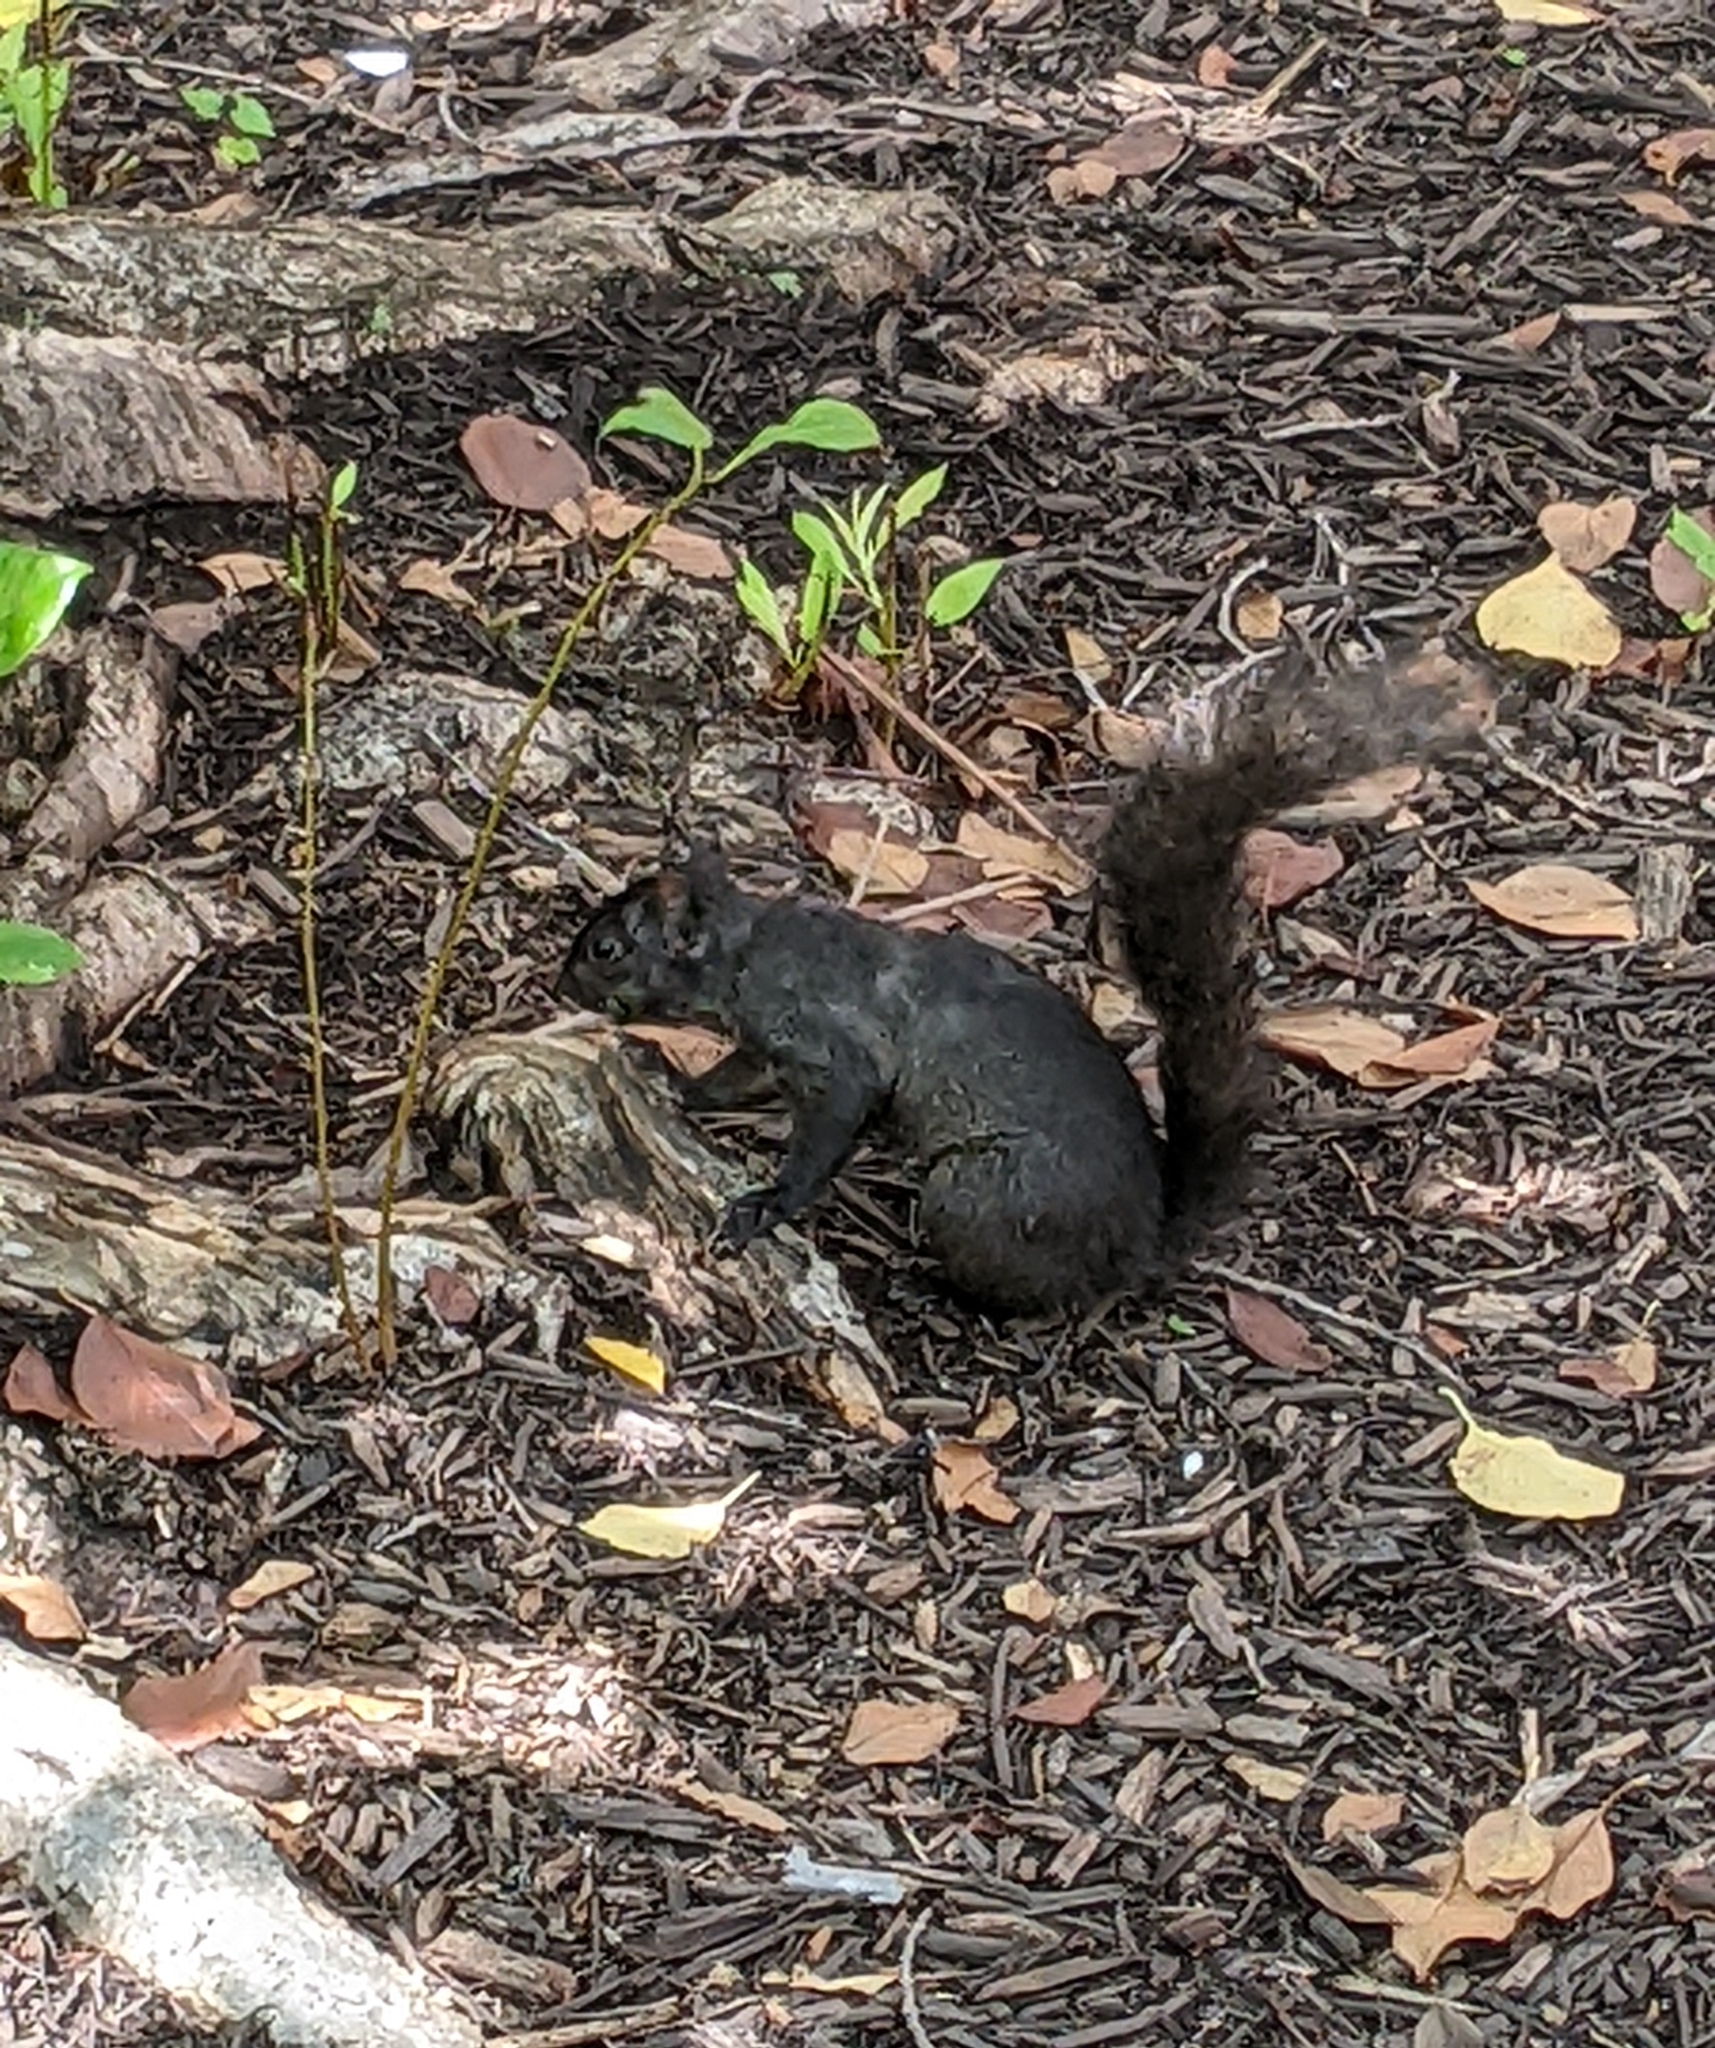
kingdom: Animalia
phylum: Chordata
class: Mammalia
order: Rodentia
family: Sciuridae
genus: Sciurus
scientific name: Sciurus carolinensis
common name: Eastern gray squirrel
